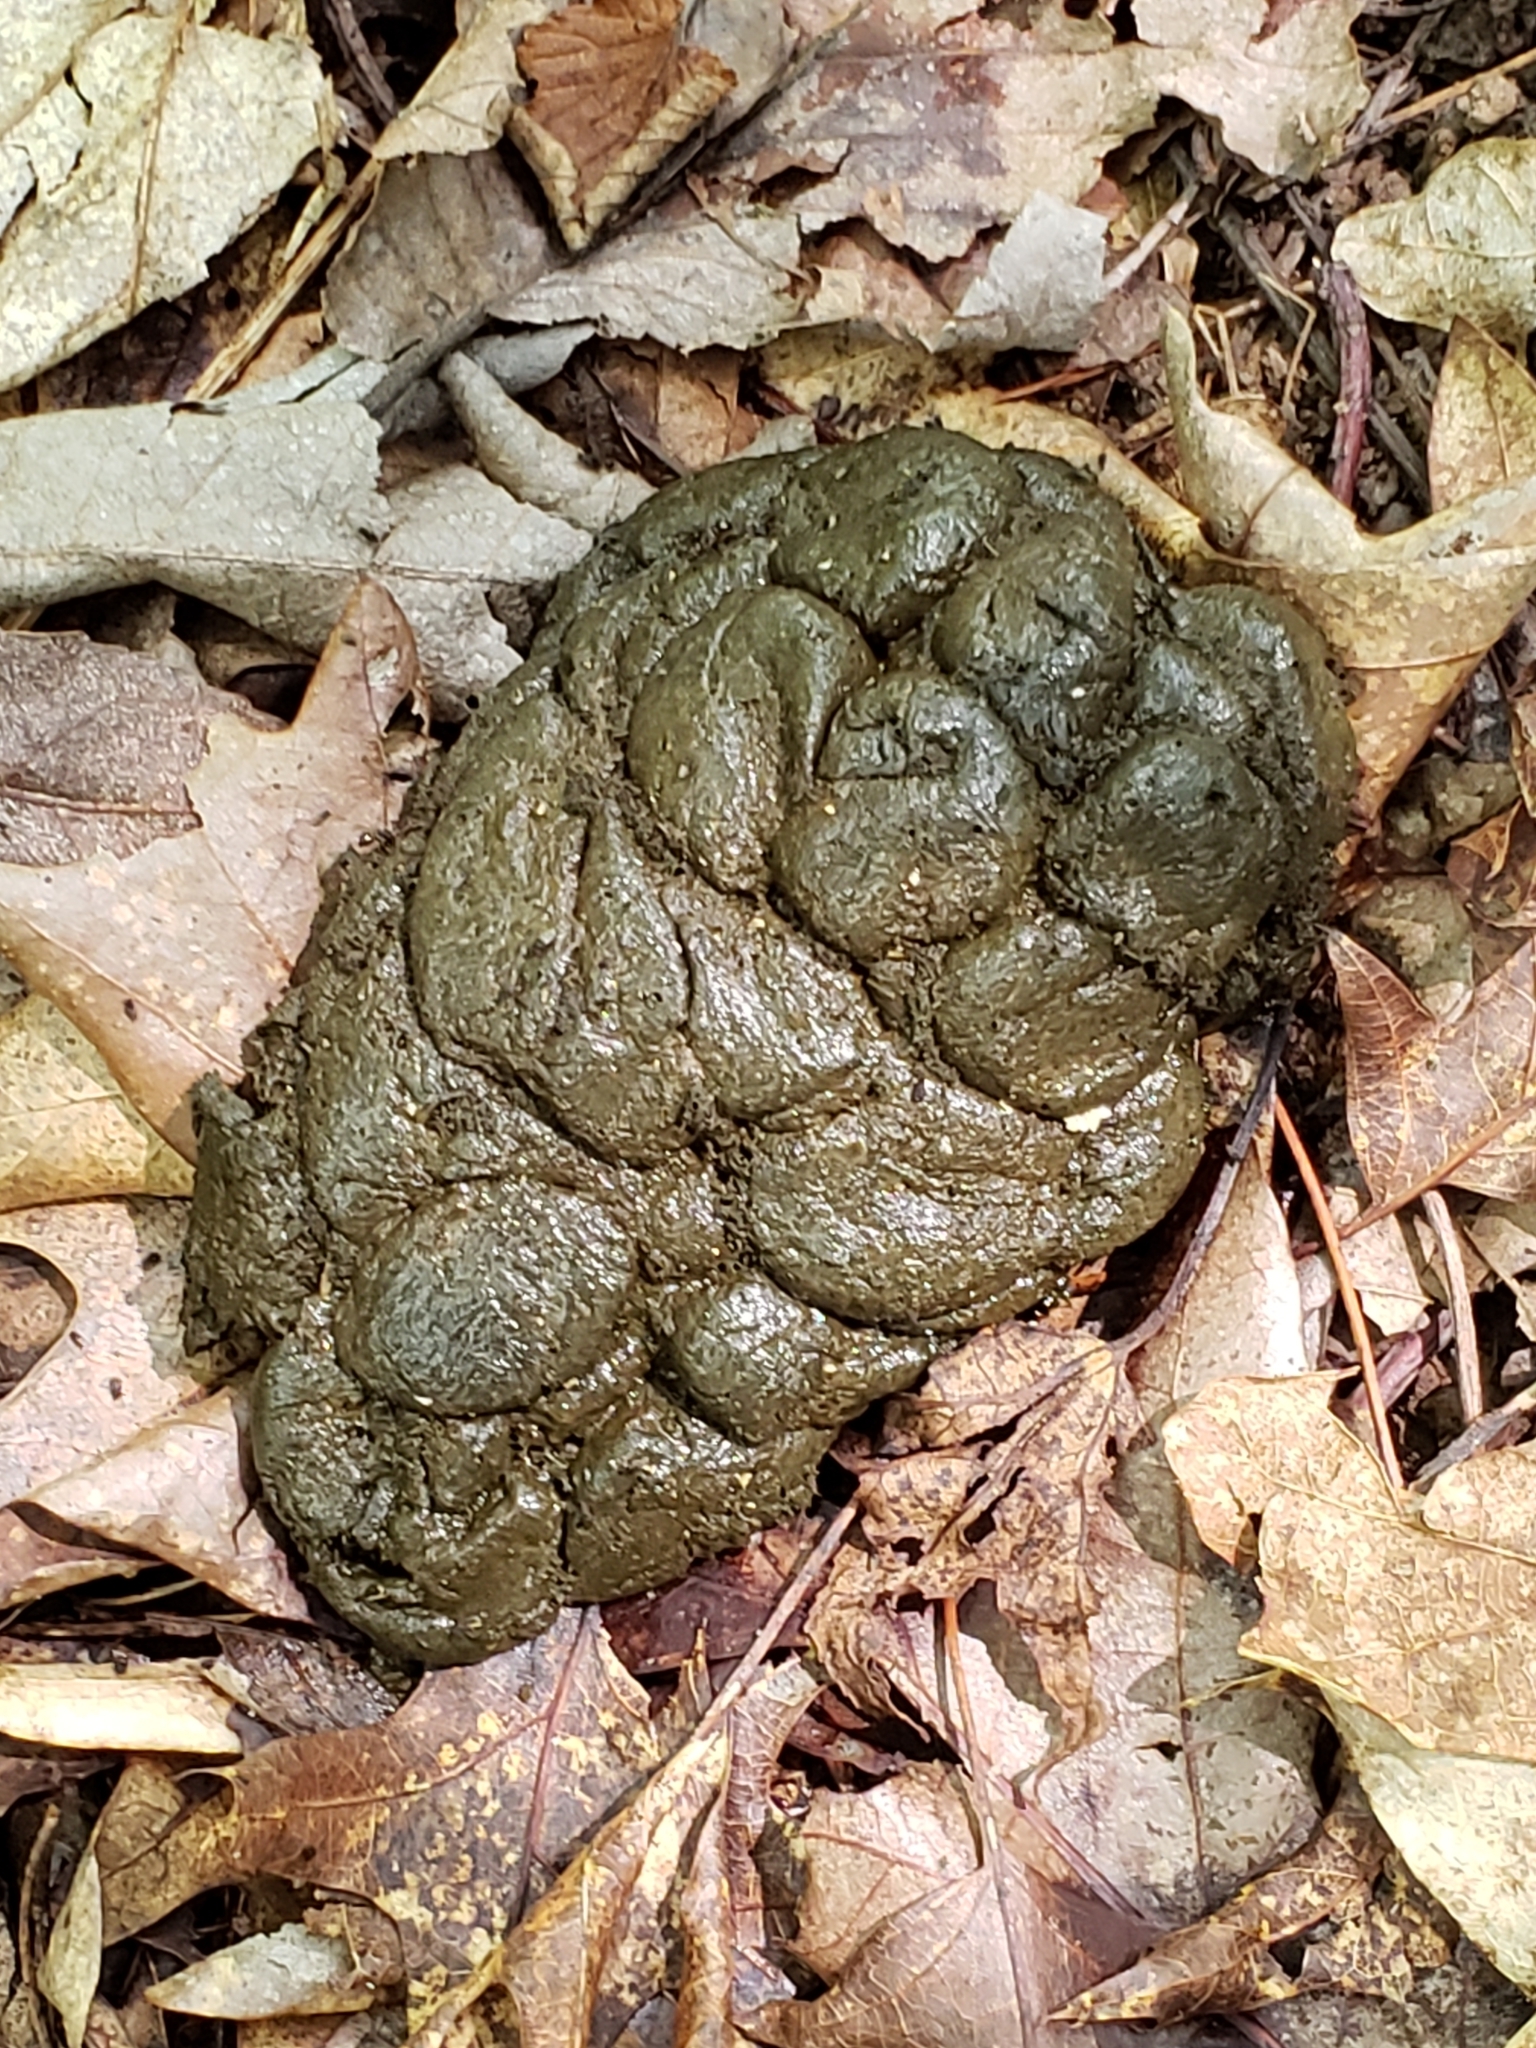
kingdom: Animalia
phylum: Chordata
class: Mammalia
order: Artiodactyla
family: Cervidae
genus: Odocoileus
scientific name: Odocoileus virginianus
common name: White-tailed deer
